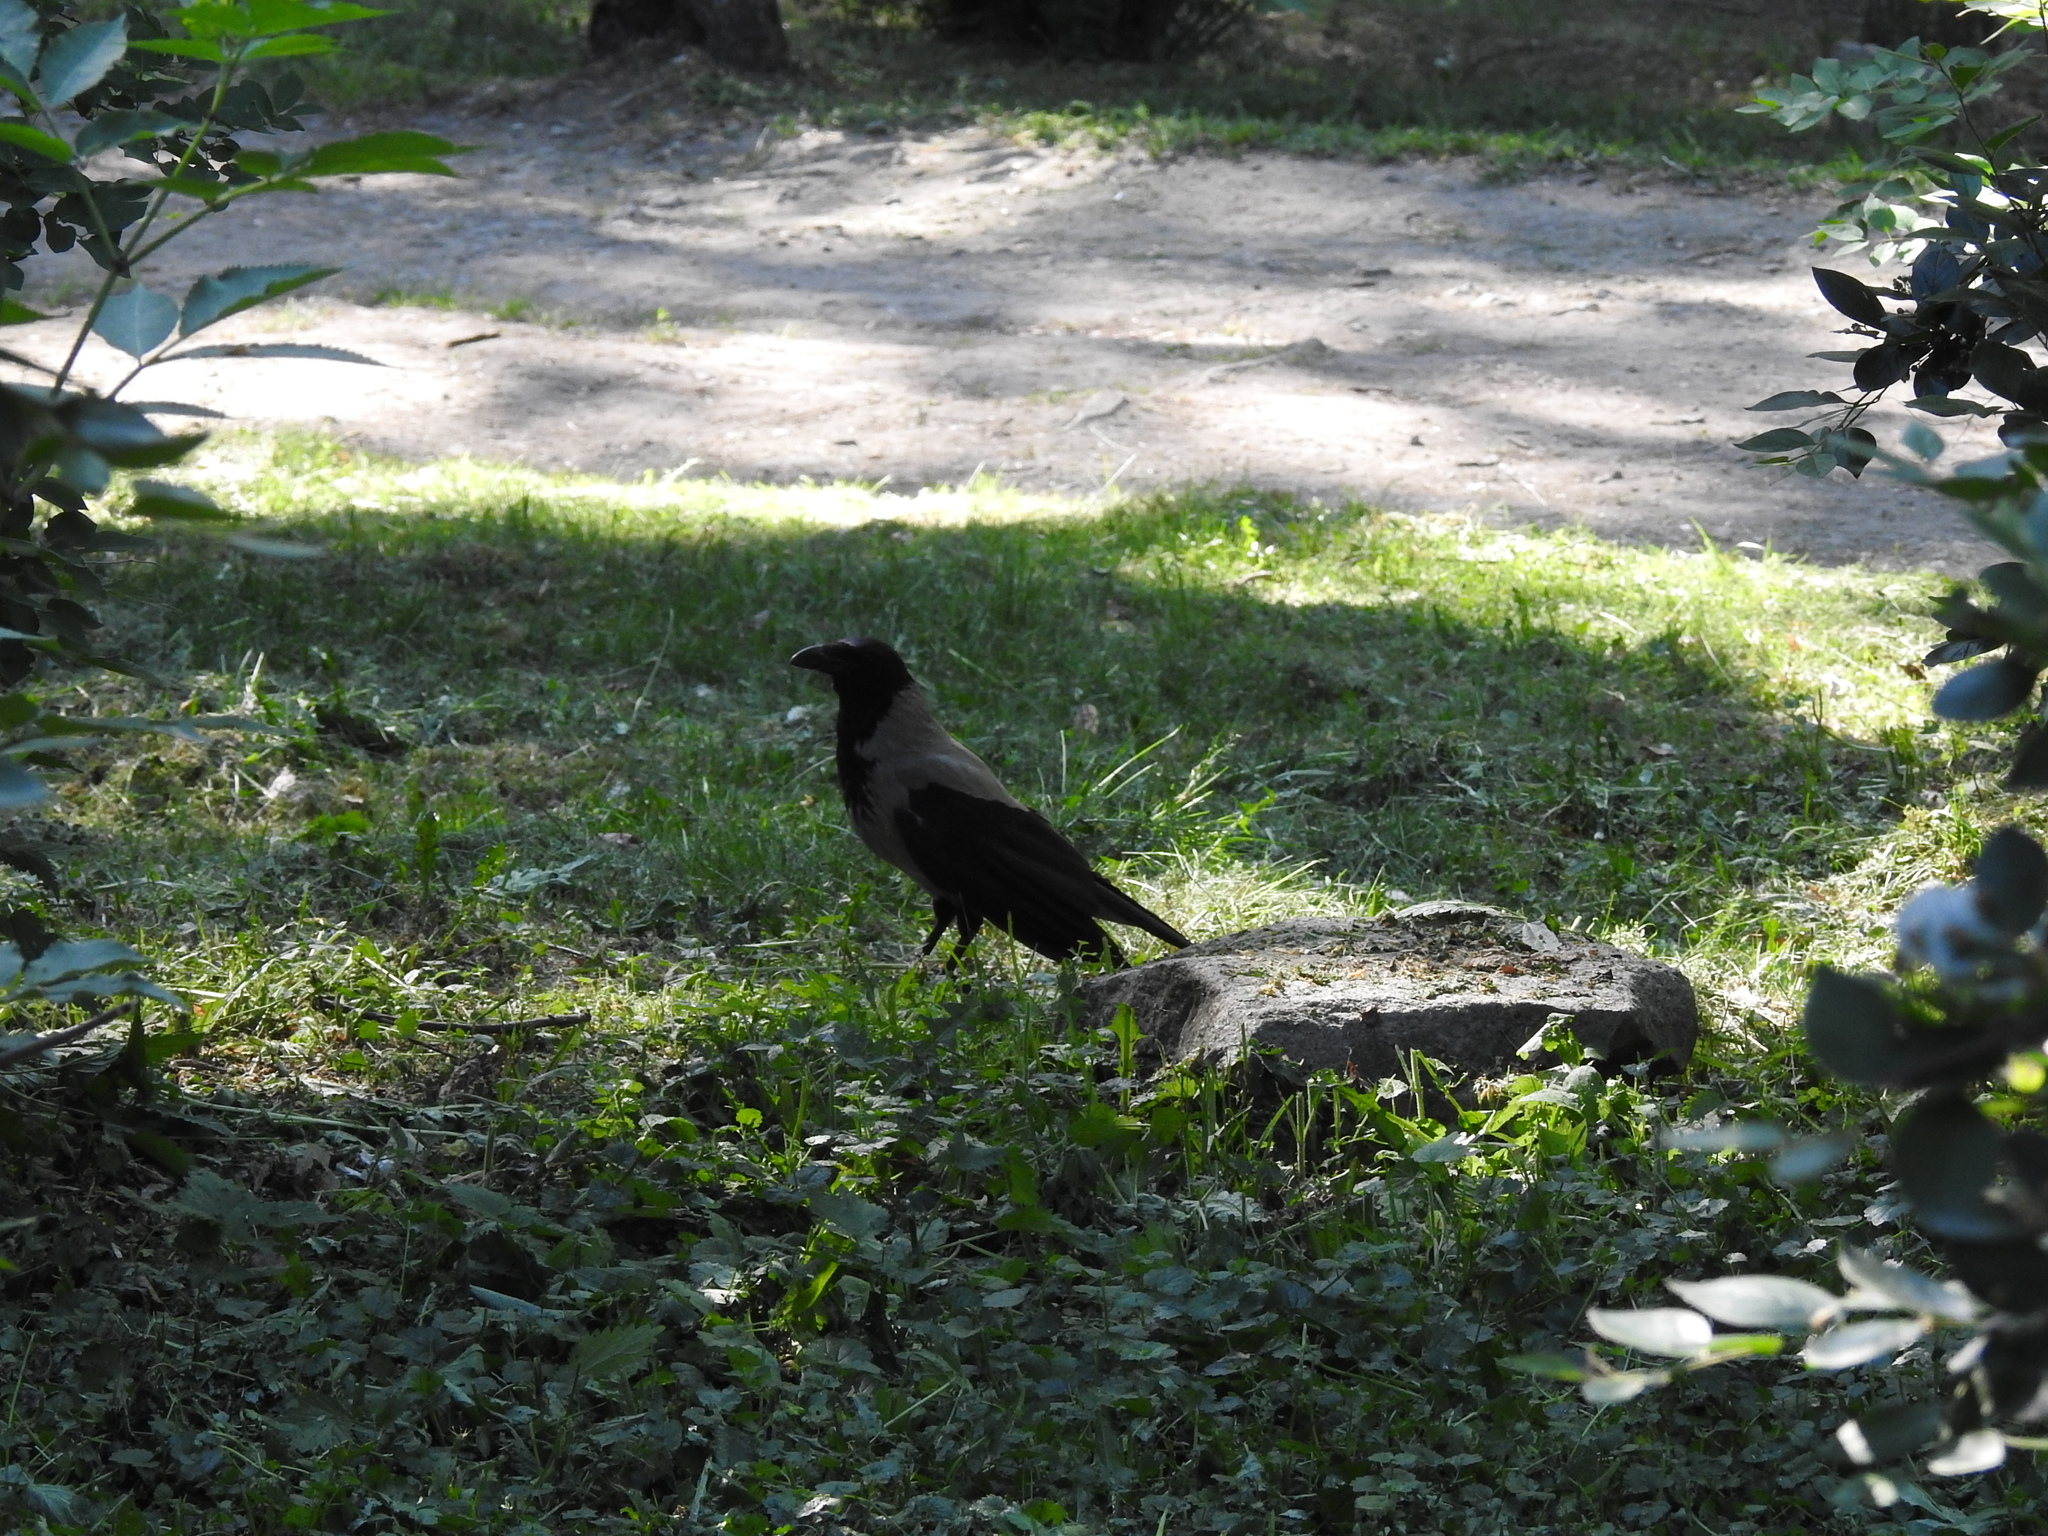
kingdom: Animalia
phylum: Chordata
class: Aves
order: Passeriformes
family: Corvidae
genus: Corvus
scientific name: Corvus cornix
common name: Hooded crow
